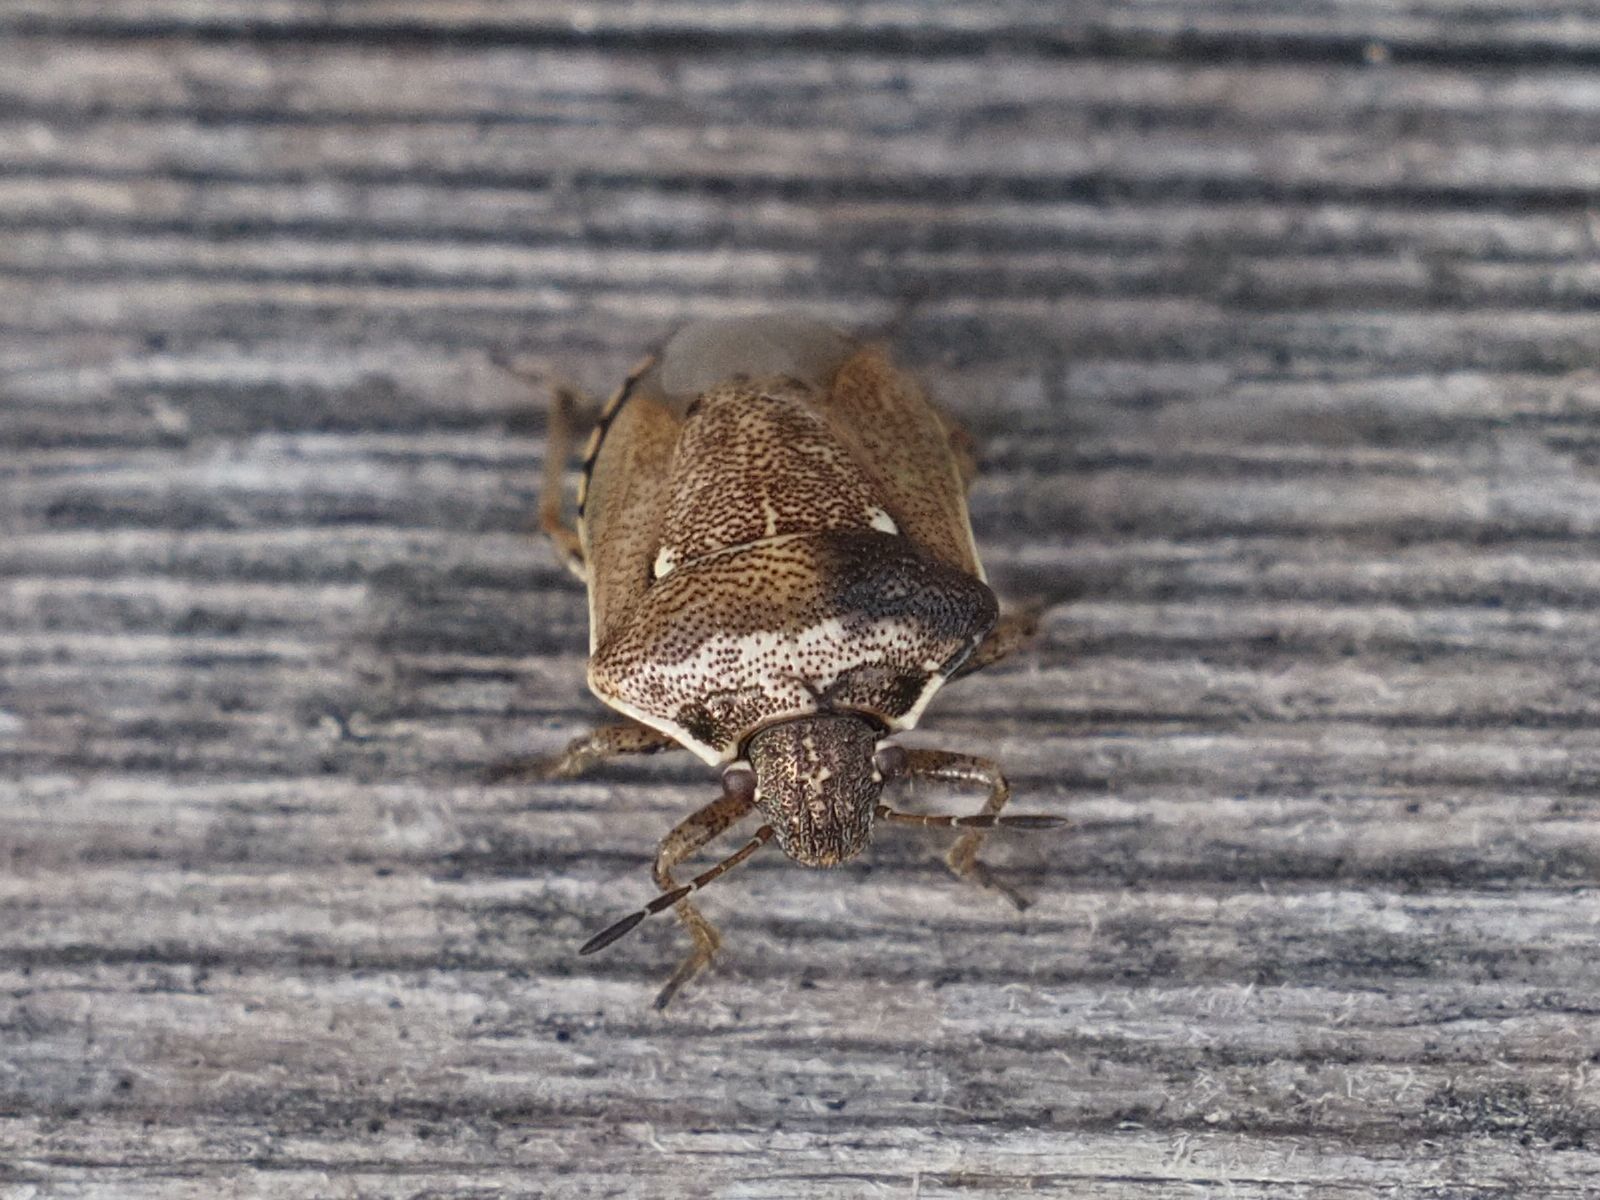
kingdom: Animalia
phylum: Arthropoda
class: Insecta
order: Hemiptera
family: Pentatomidae
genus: Eysarcoris
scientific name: Eysarcoris ventralis
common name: White-spotted stink bug
